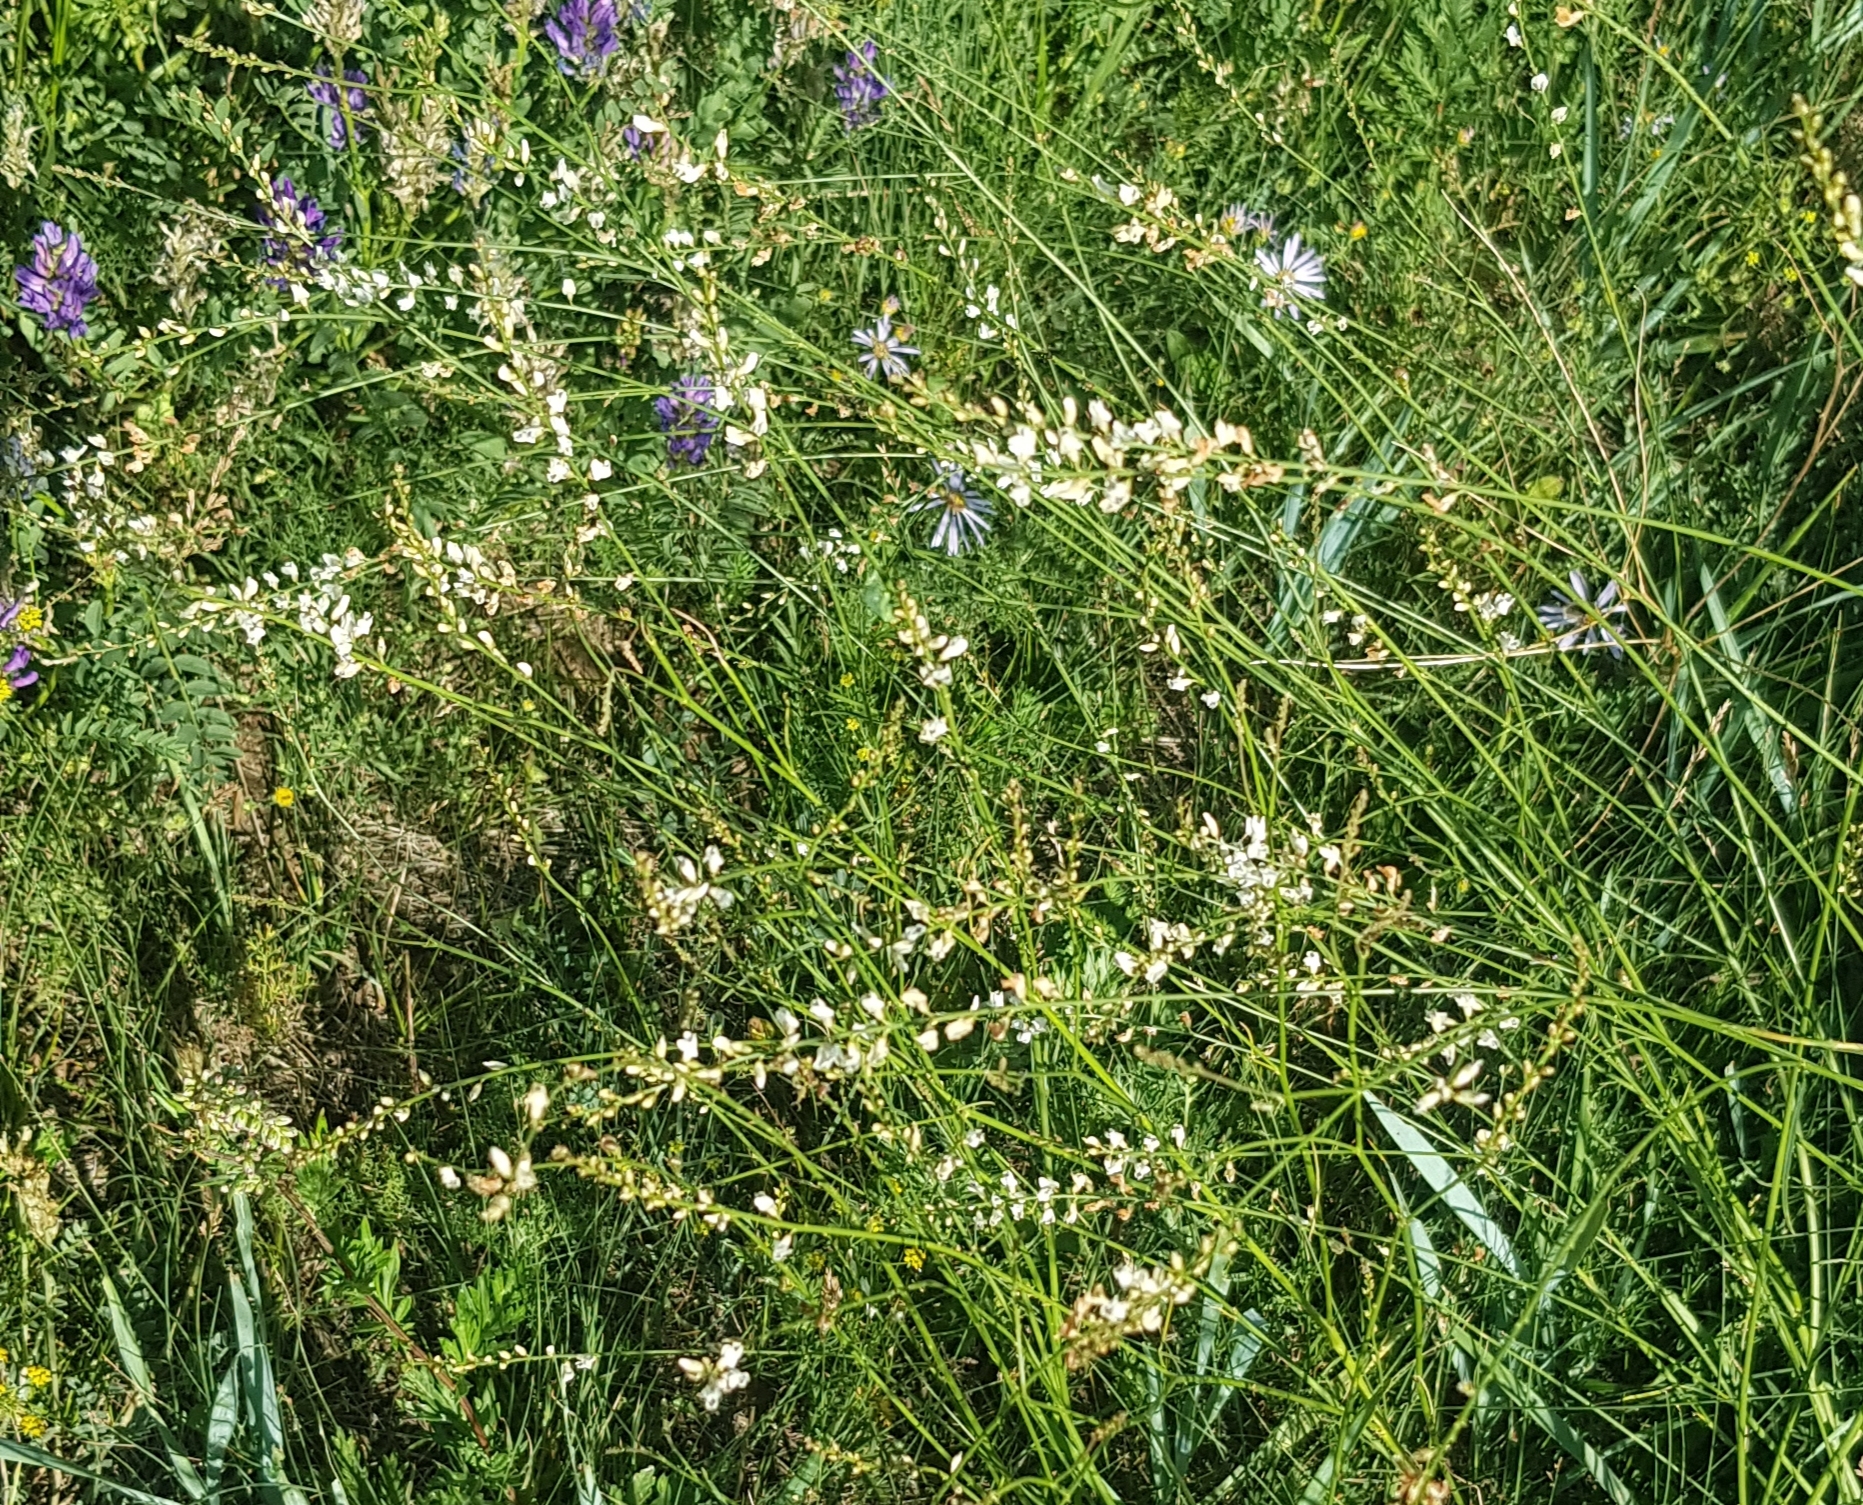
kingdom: Plantae
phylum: Tracheophyta
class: Magnoliopsida
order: Fabales
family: Fabaceae
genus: Astragalus
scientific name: Astragalus melilotoides
